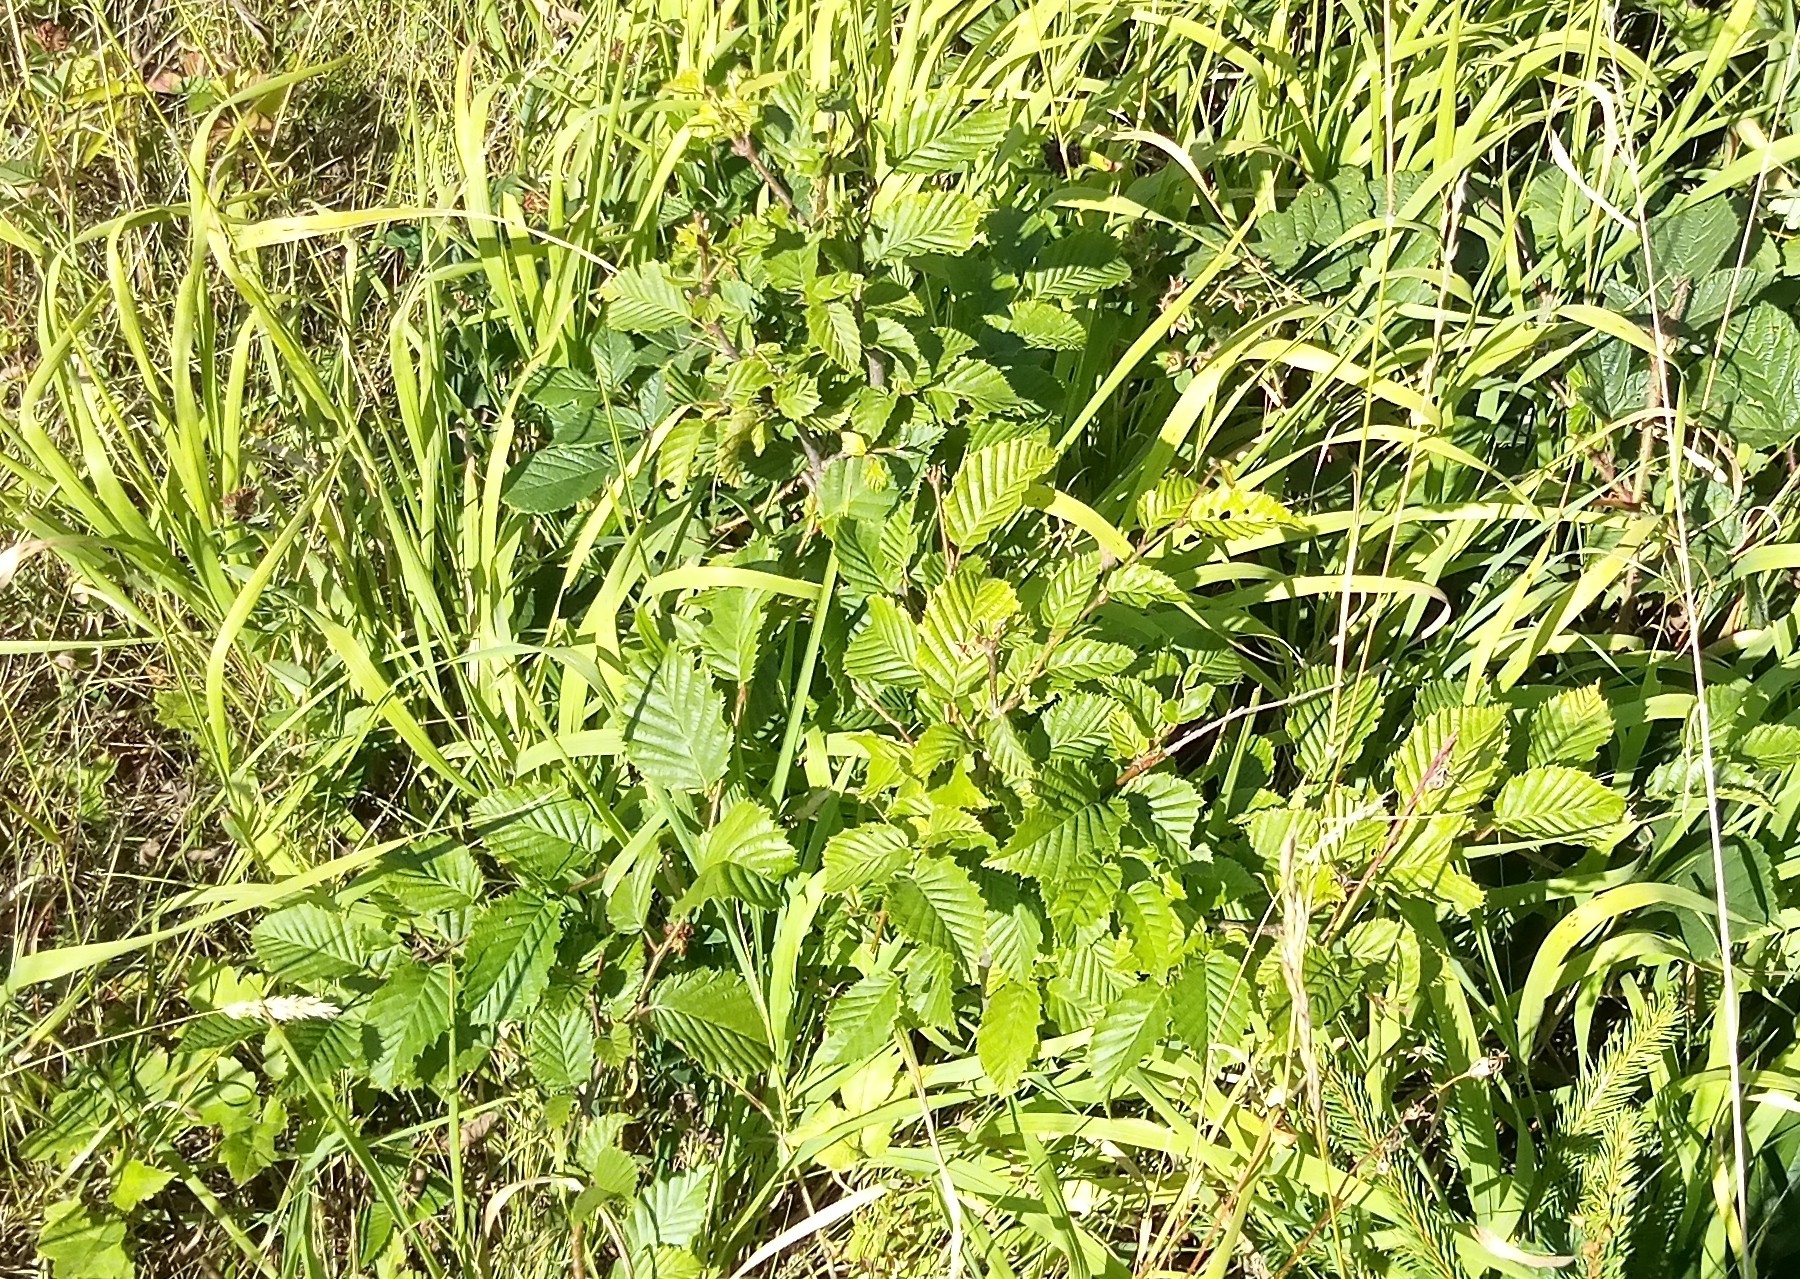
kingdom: Plantae
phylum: Tracheophyta
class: Magnoliopsida
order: Fagales
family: Betulaceae
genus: Carpinus
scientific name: Carpinus betulus
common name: Hornbeam
